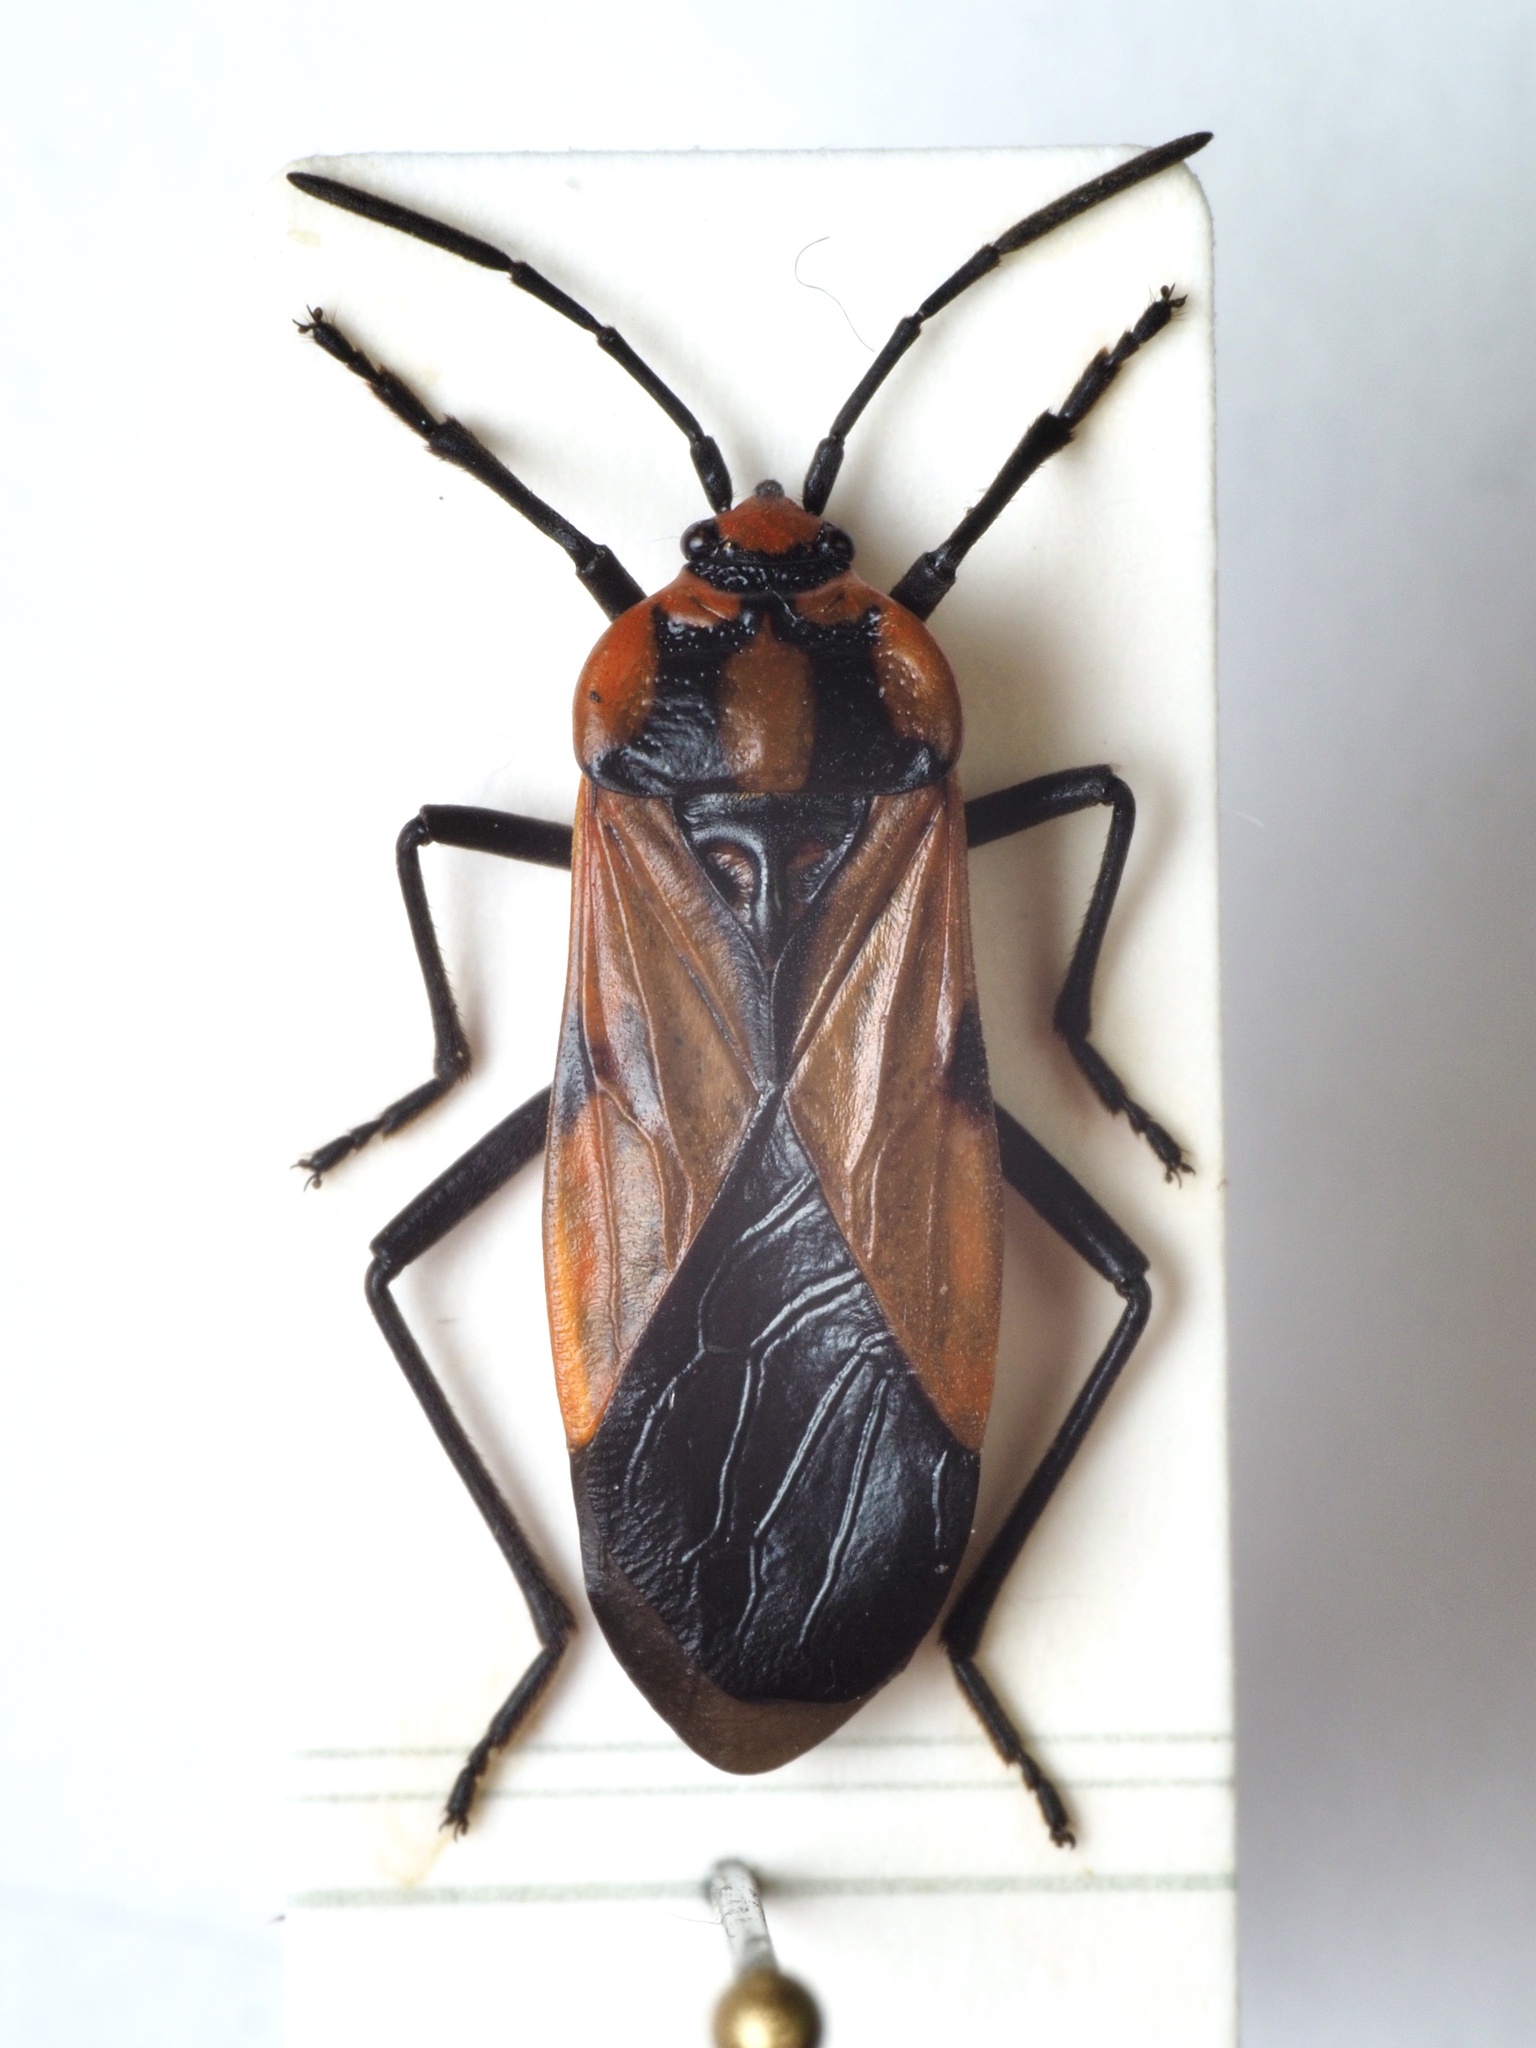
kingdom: Animalia
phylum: Arthropoda
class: Insecta
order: Hemiptera
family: Lygaeidae
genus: Stalagmostethus
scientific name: Stalagmostethus fuscatus
